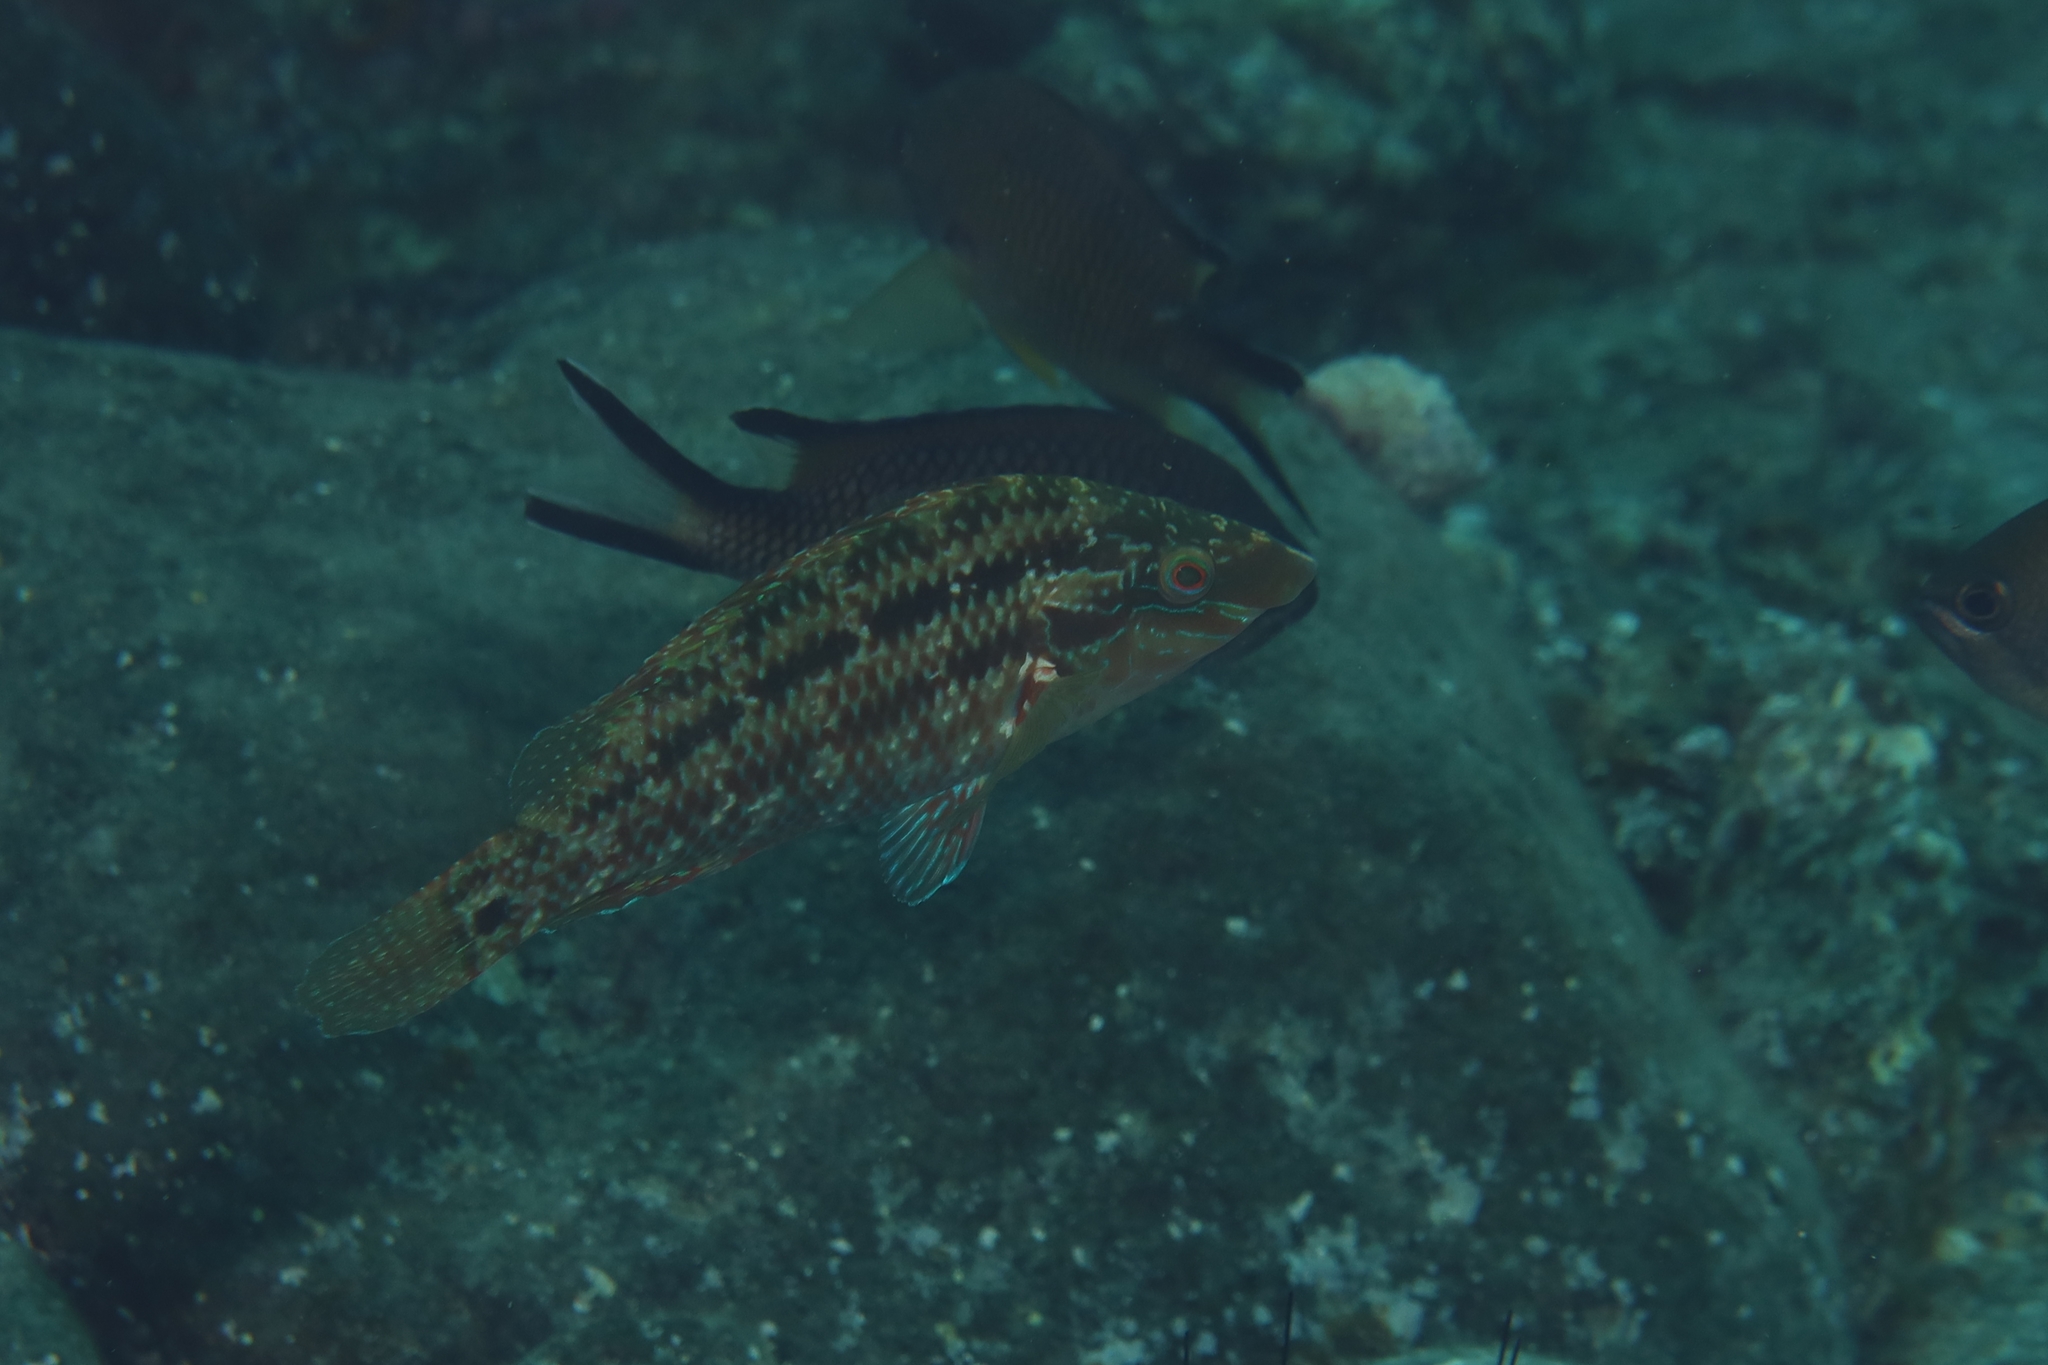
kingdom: Animalia
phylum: Chordata
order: Perciformes
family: Labridae
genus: Symphodus
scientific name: Symphodus trutta
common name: Emerald wrasse
